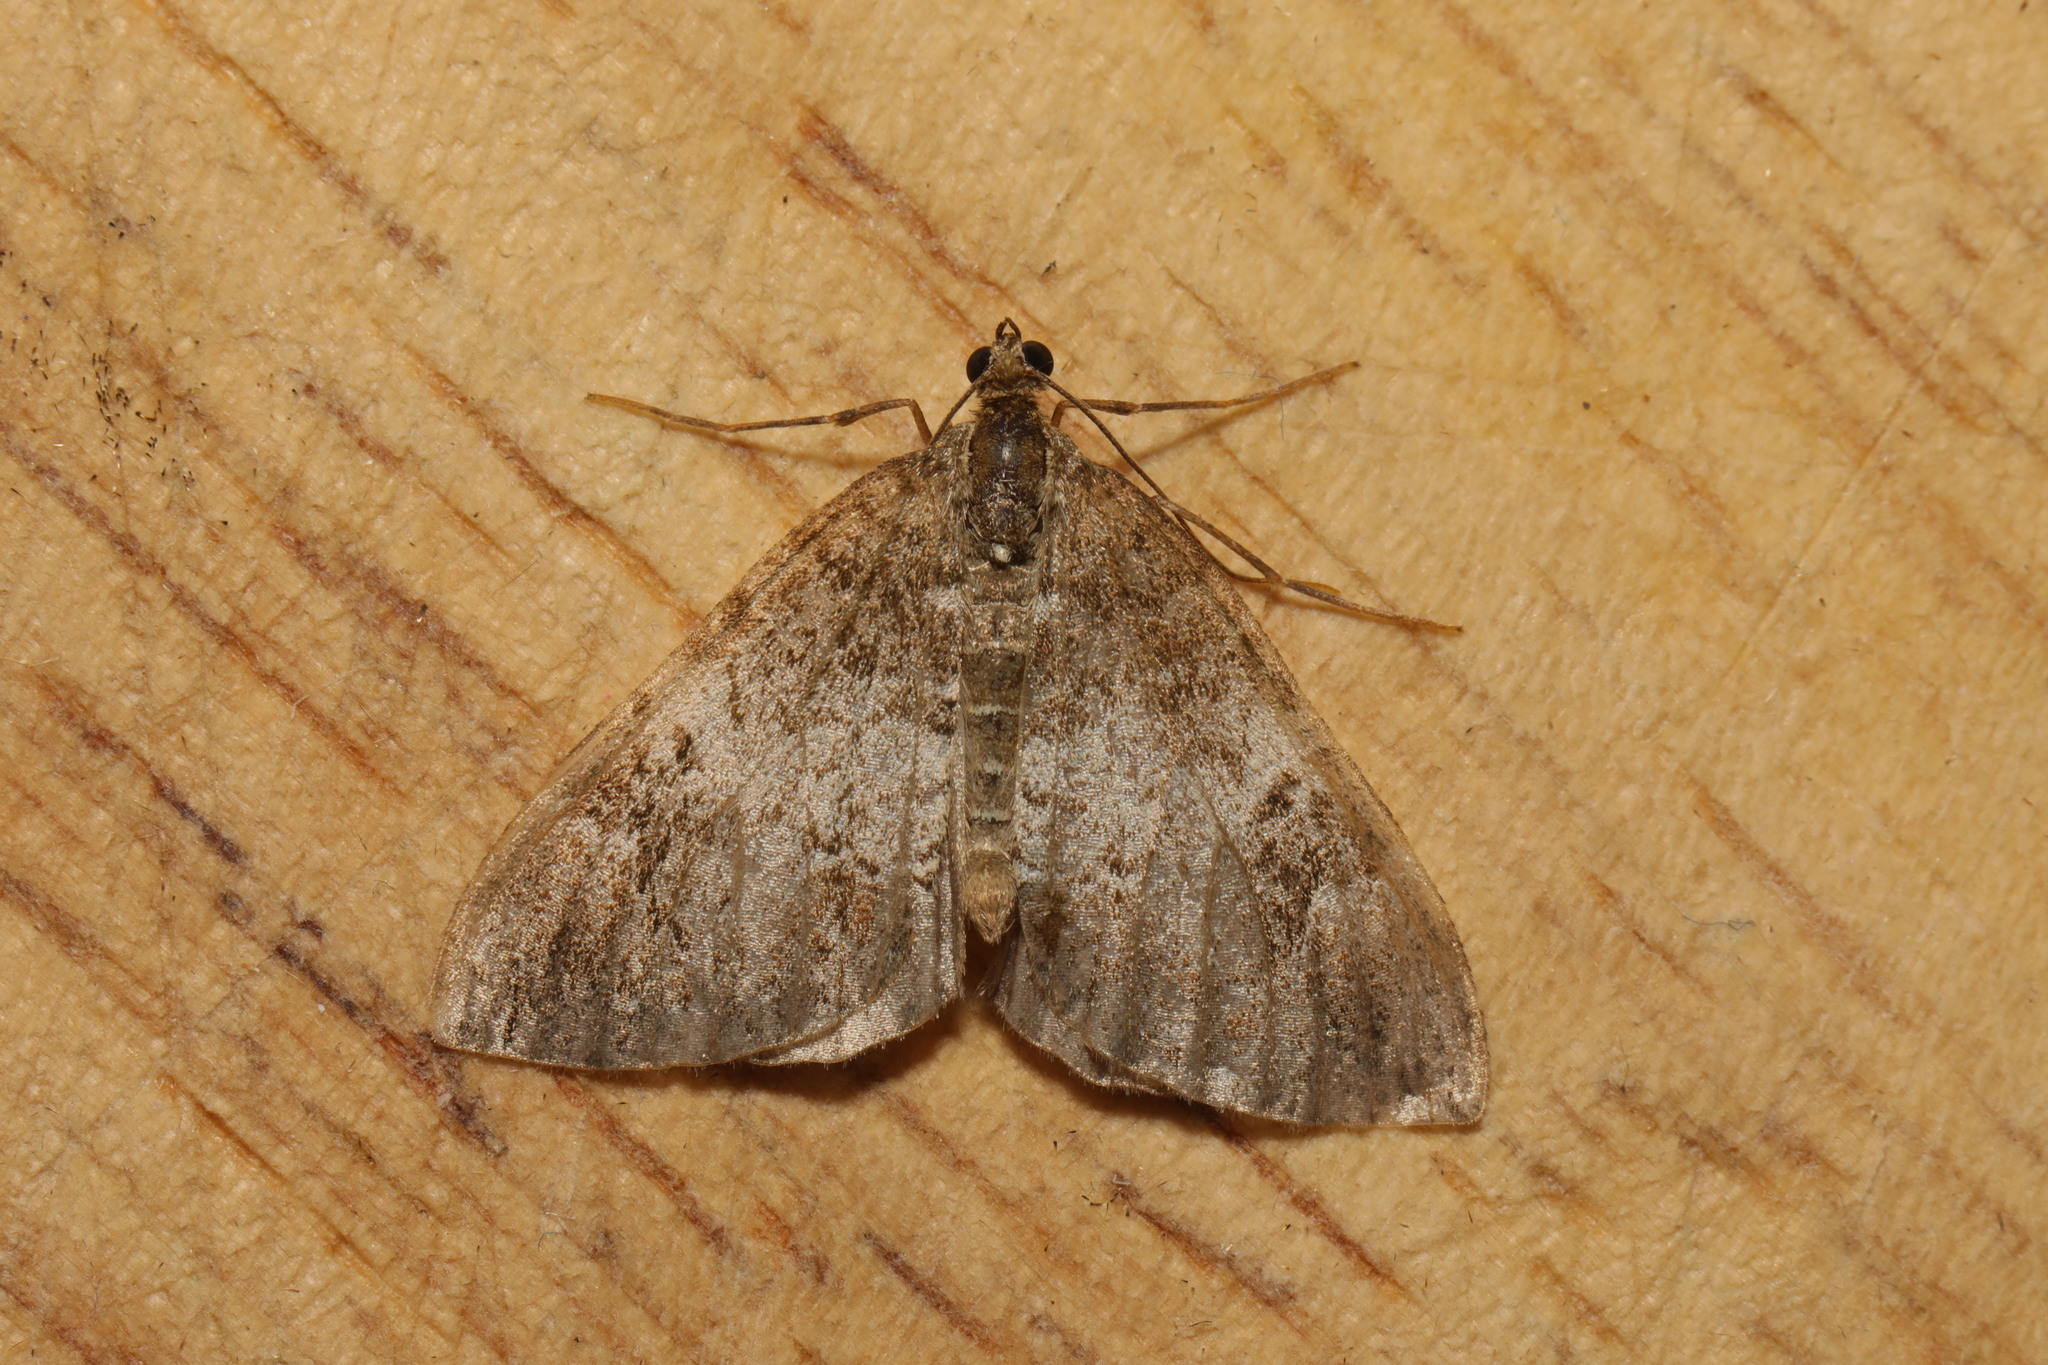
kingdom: Animalia
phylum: Arthropoda
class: Insecta
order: Lepidoptera
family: Geometridae
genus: Dysstroma
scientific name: Dysstroma truncata
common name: Common marbled carpet
